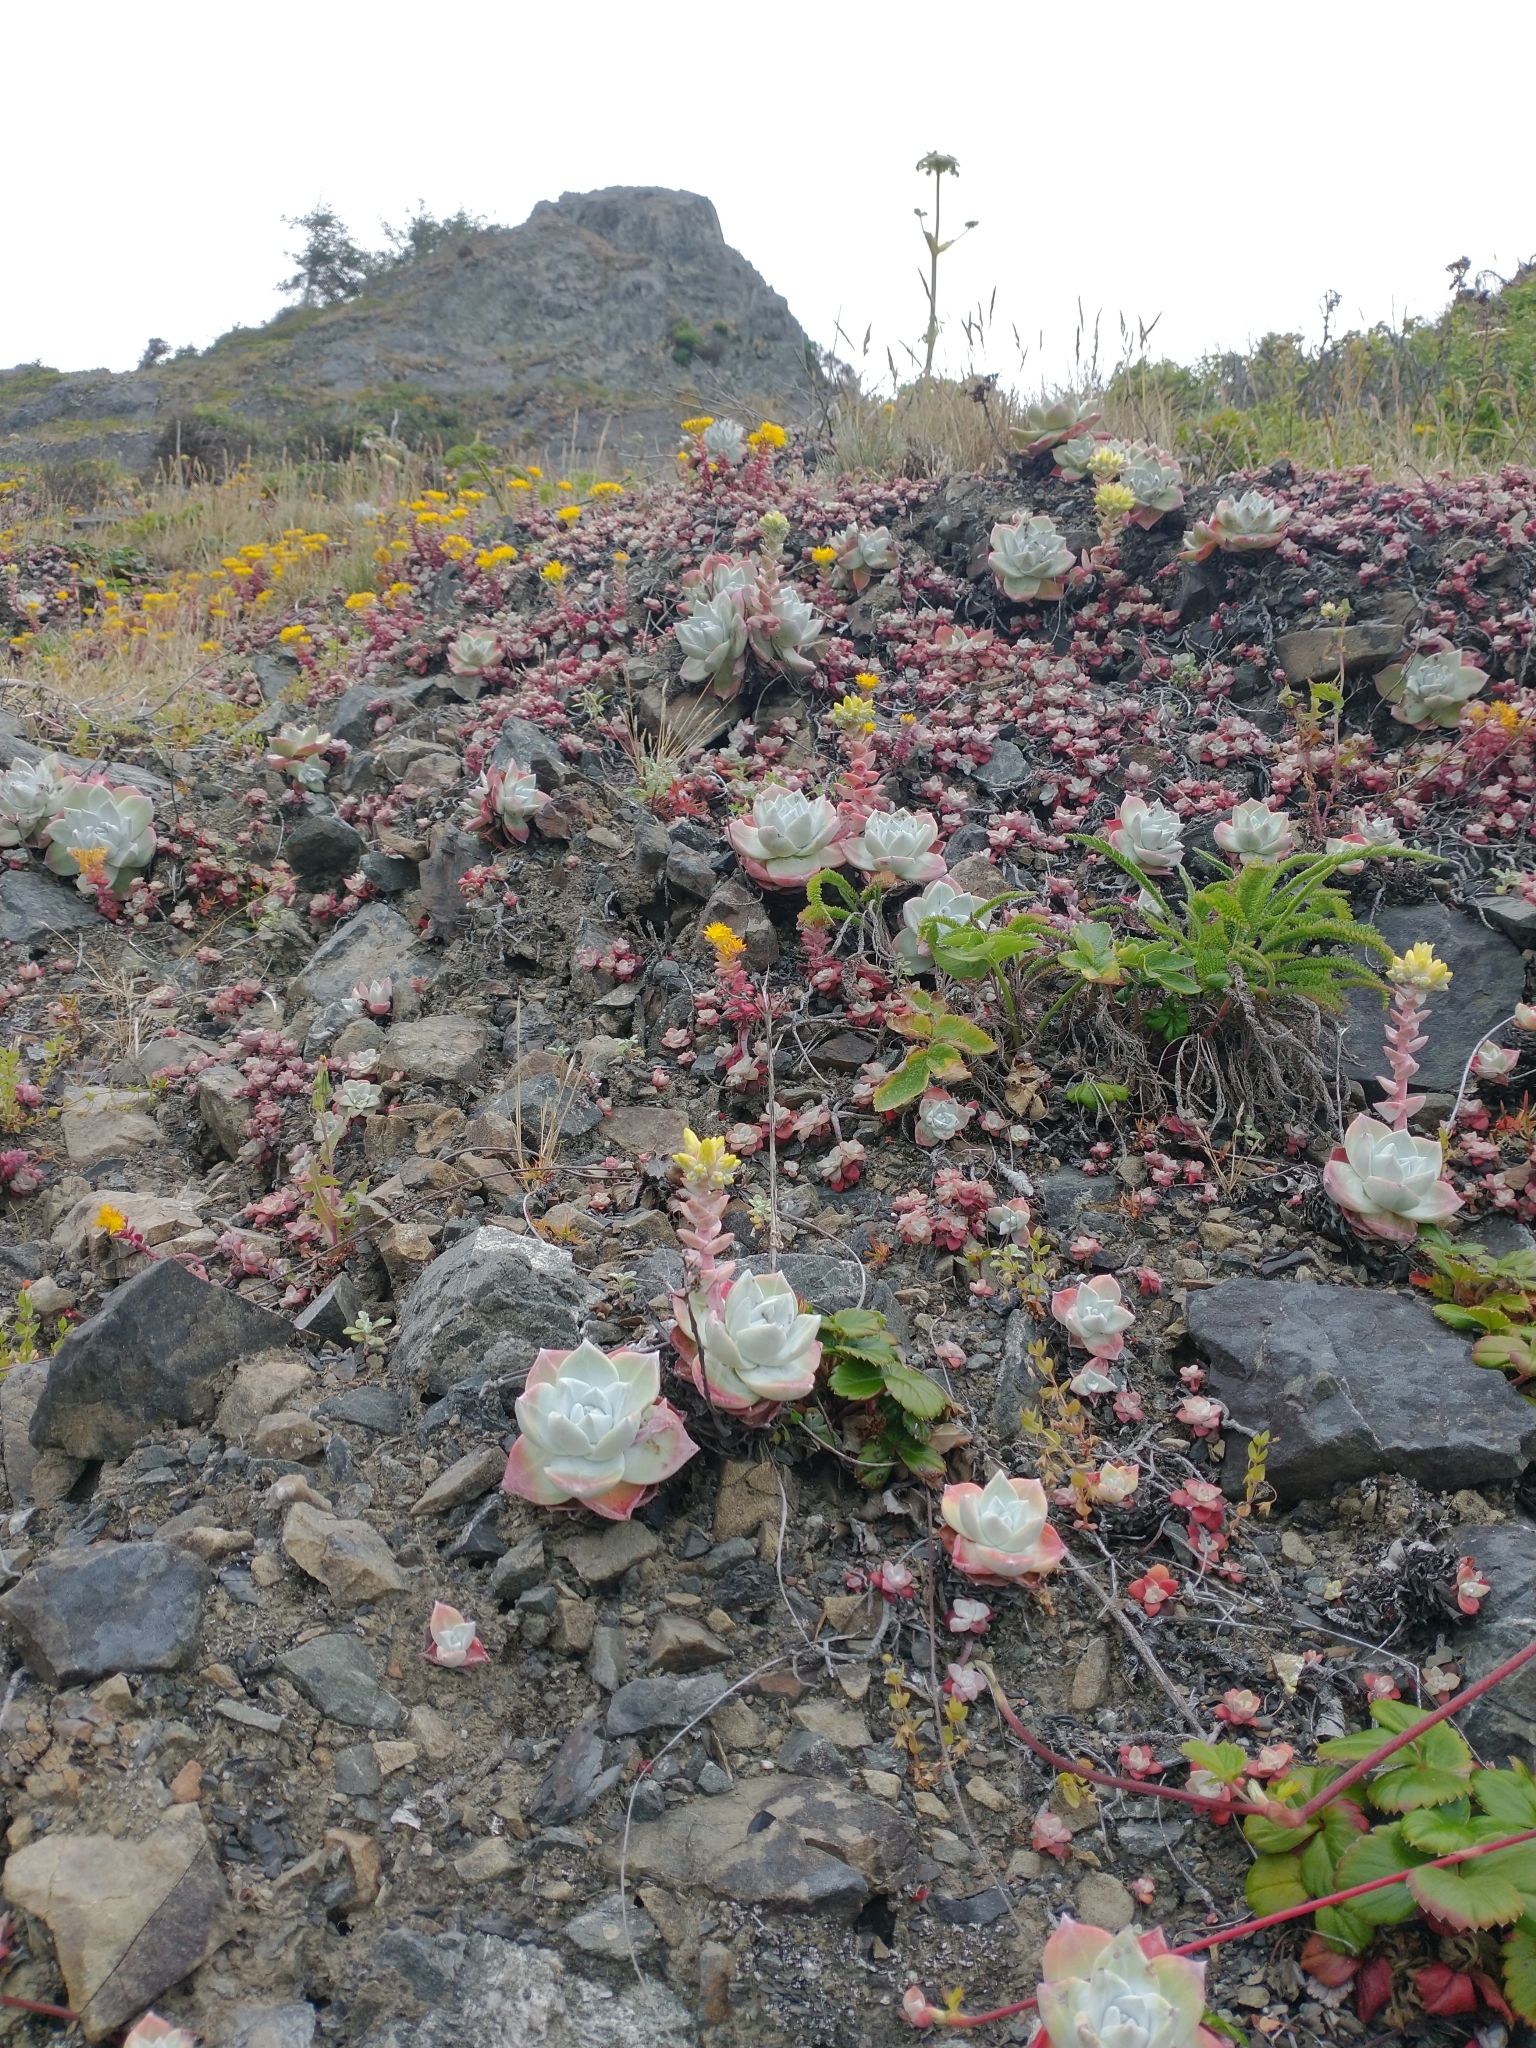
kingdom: Plantae
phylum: Tracheophyta
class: Magnoliopsida
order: Saxifragales
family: Crassulaceae
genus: Dudleya
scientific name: Dudleya farinosa
